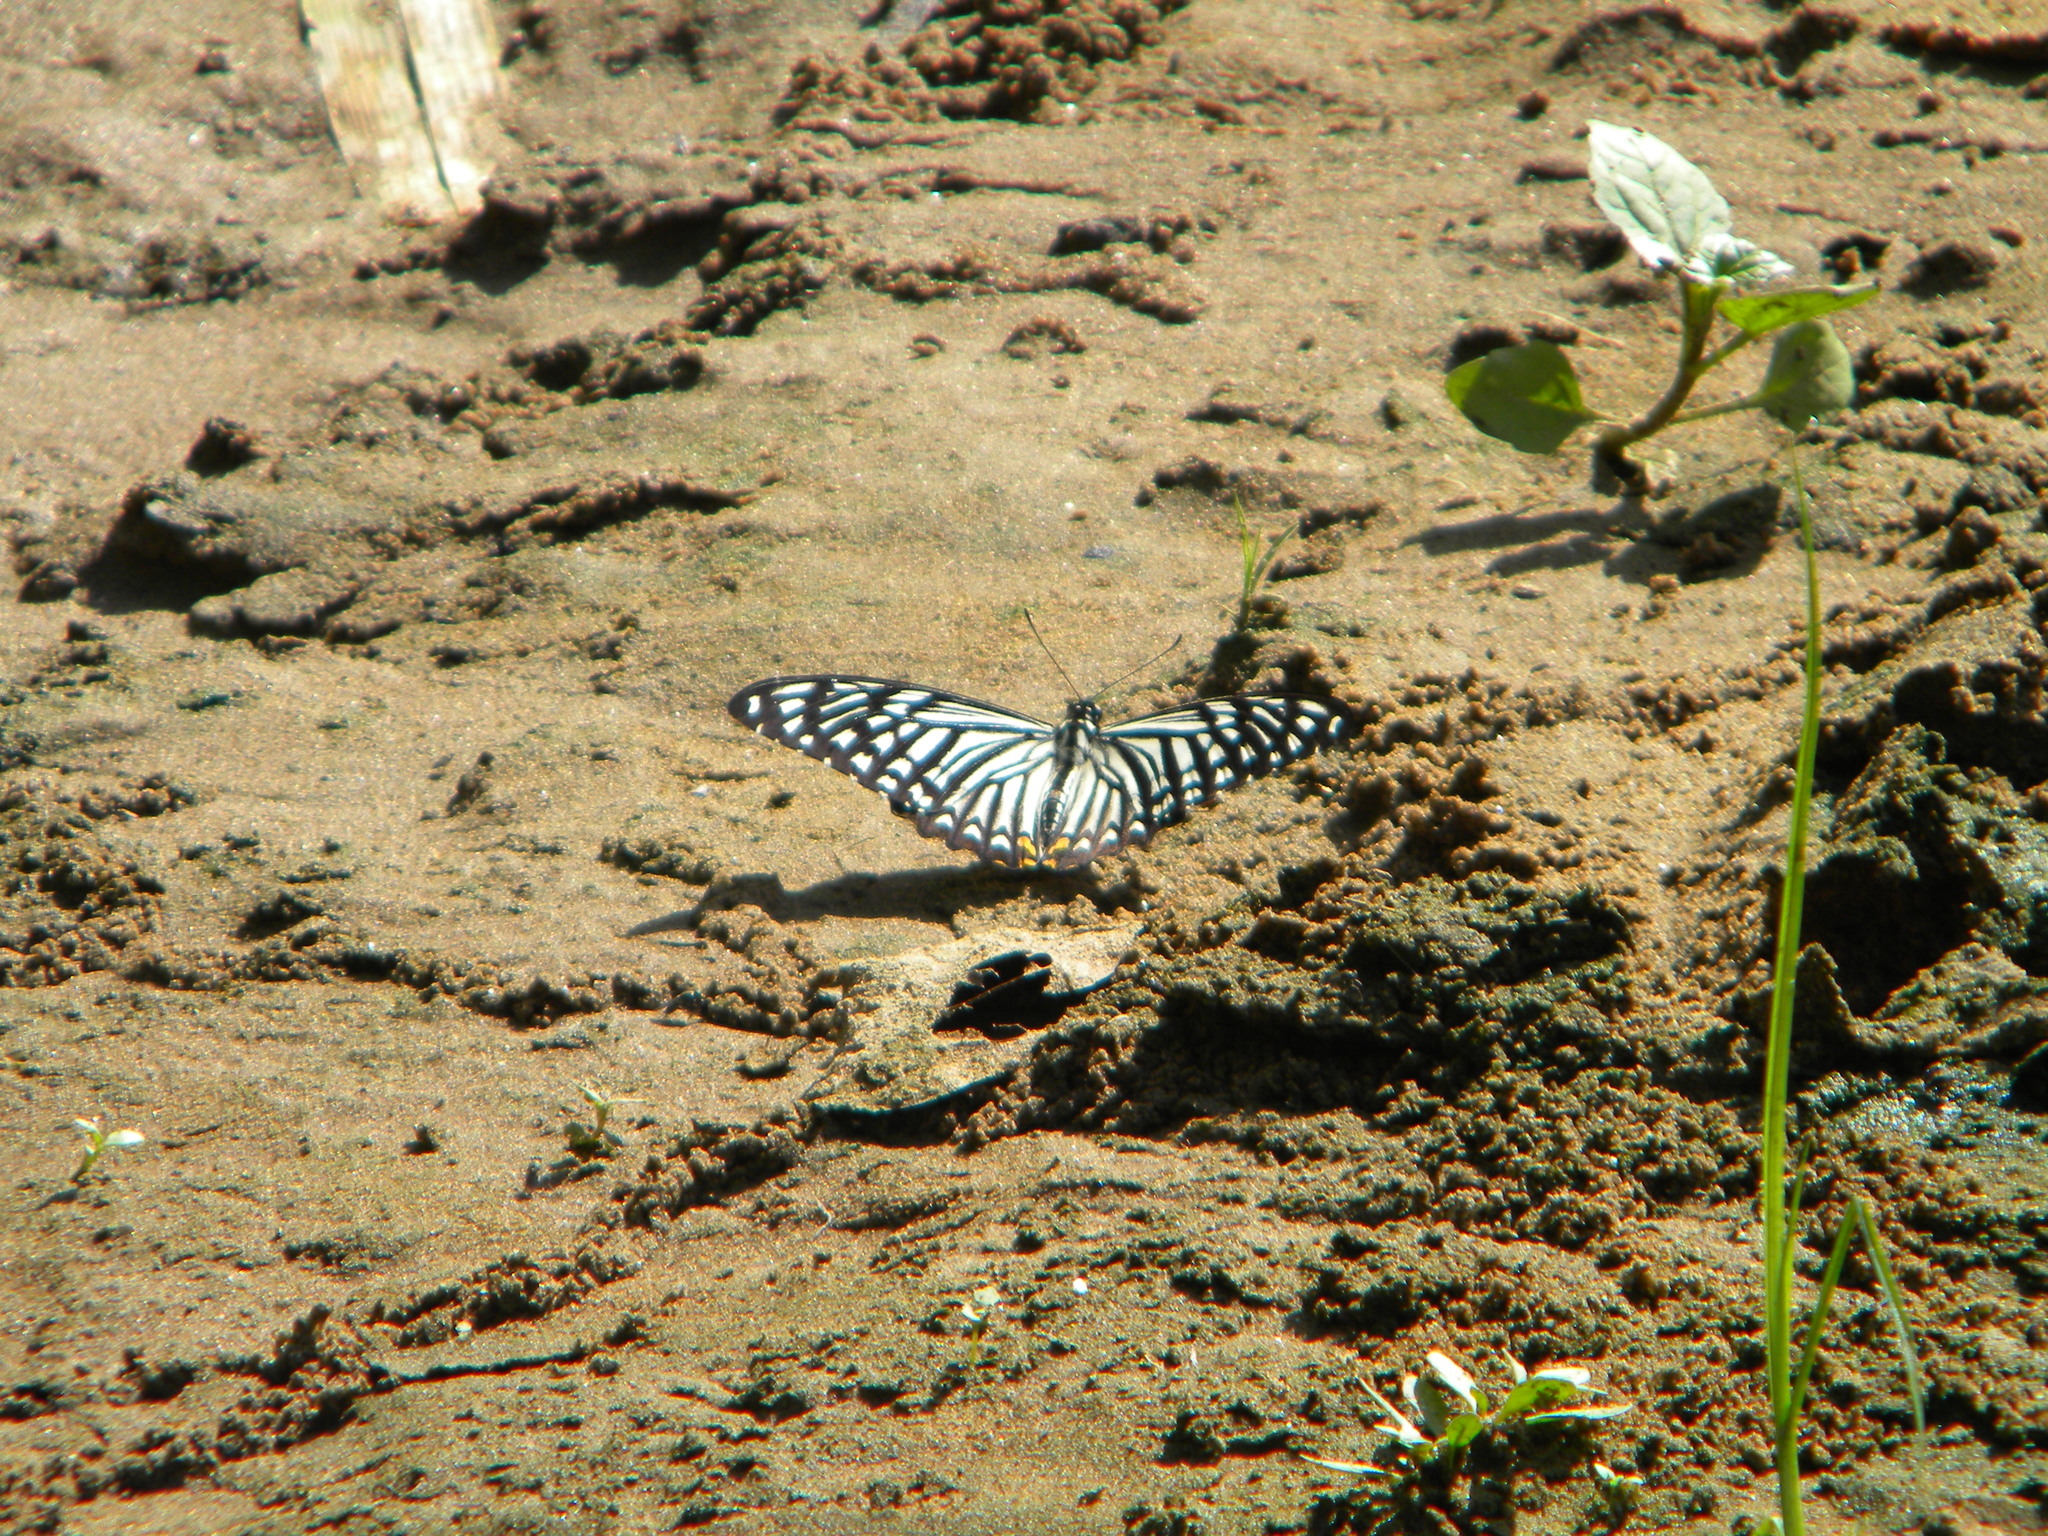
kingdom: Animalia
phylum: Arthropoda
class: Insecta
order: Lepidoptera
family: Papilionidae
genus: Chilasa
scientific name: Chilasa clytia
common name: Common mime
